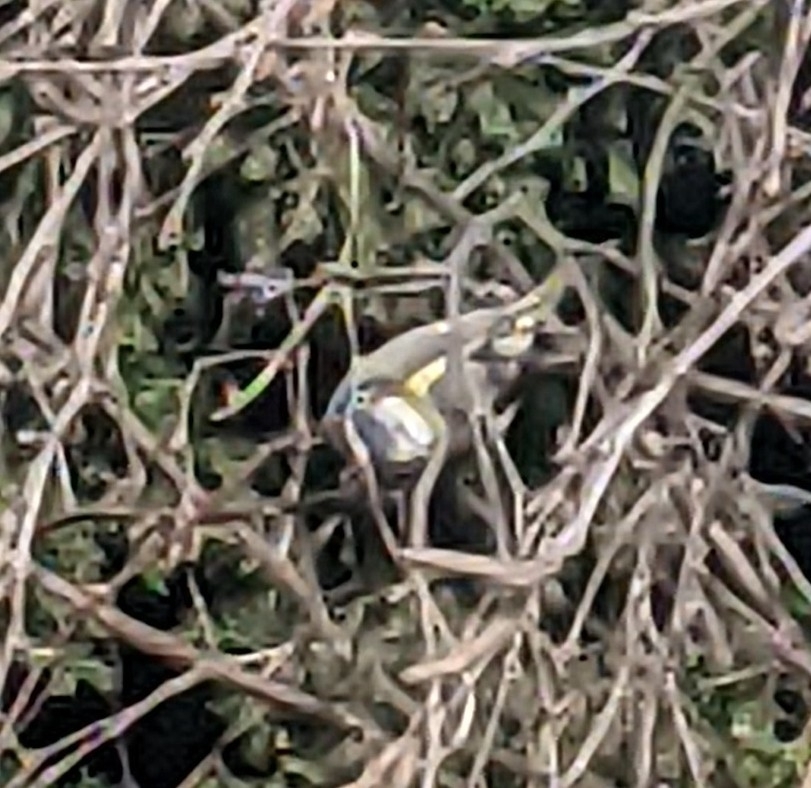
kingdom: Animalia
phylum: Chordata
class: Aves
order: Passeriformes
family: Paridae
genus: Cyanistes
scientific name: Cyanistes caeruleus
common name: Eurasian blue tit
